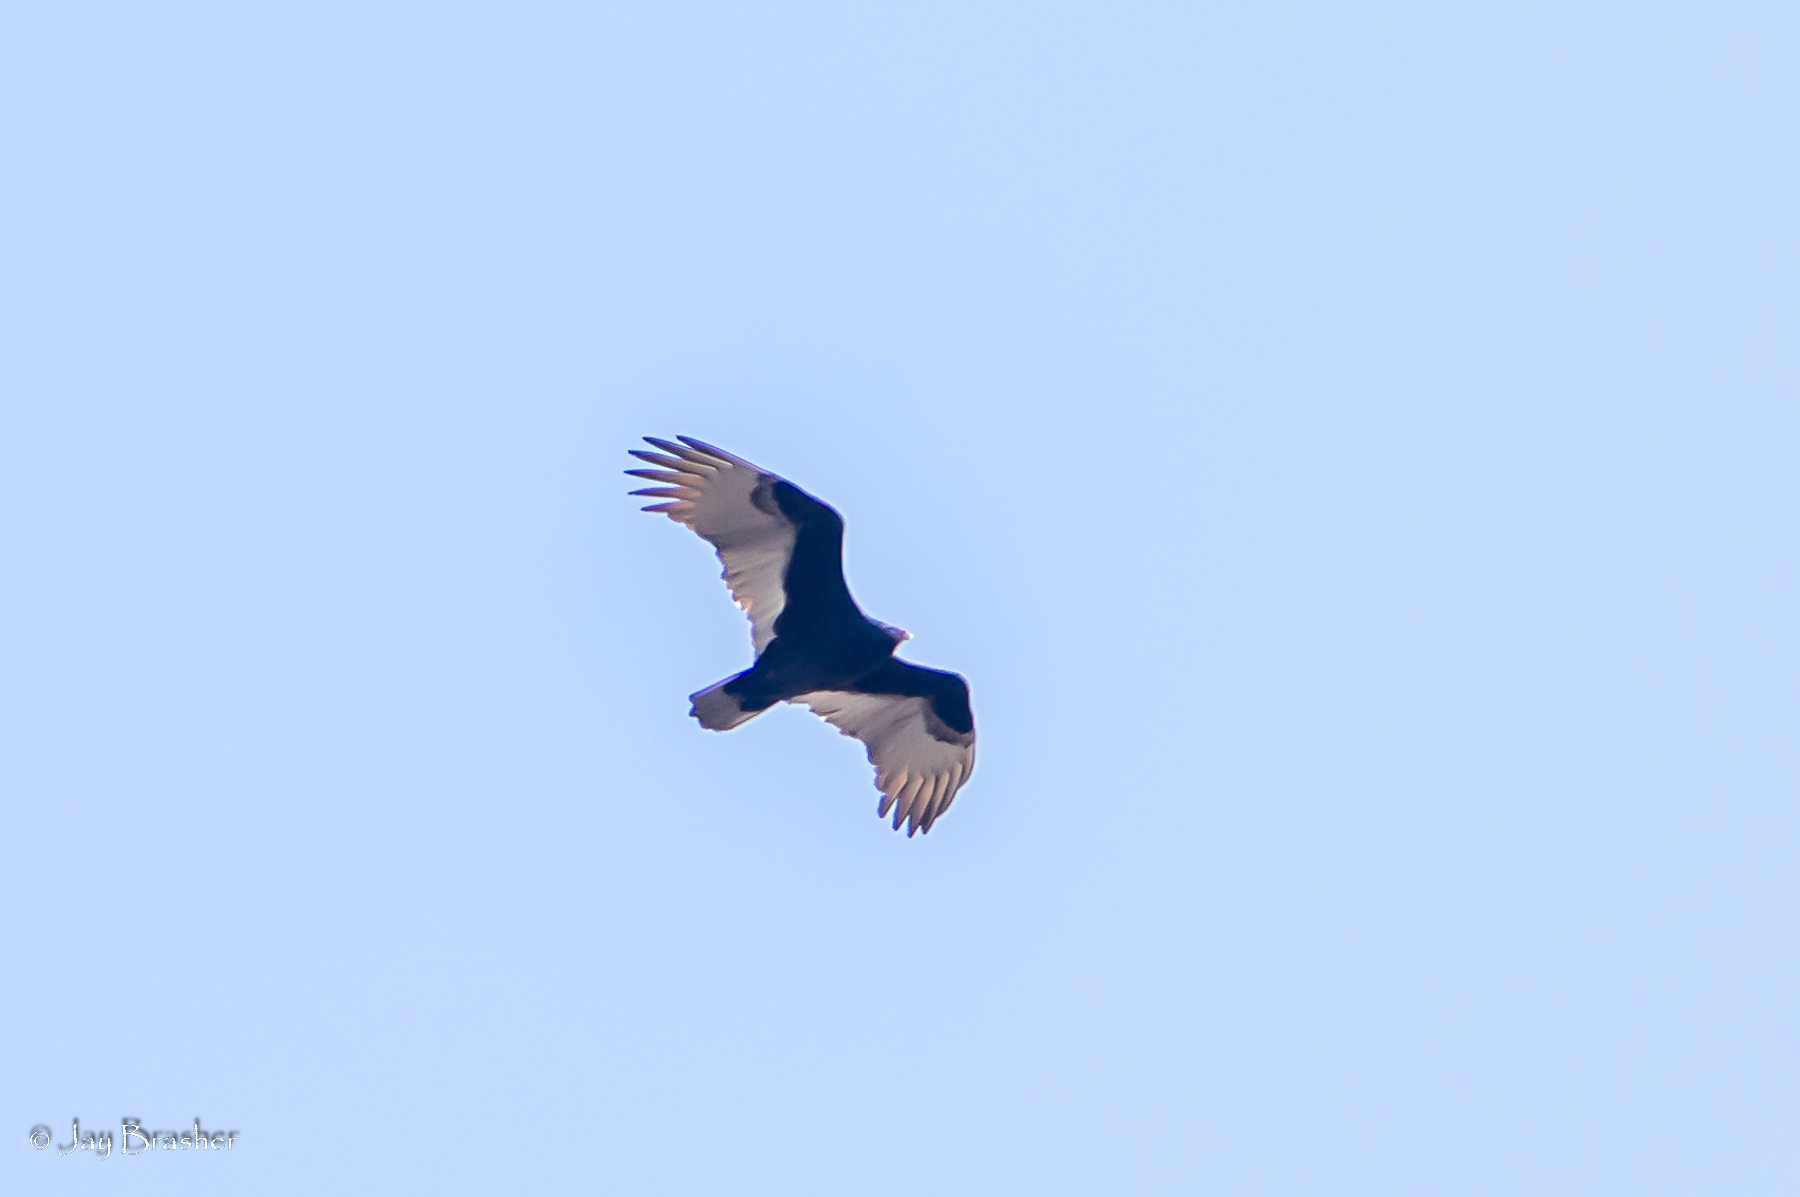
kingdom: Animalia
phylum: Chordata
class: Aves
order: Accipitriformes
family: Cathartidae
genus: Cathartes
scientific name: Cathartes aura
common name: Turkey vulture
